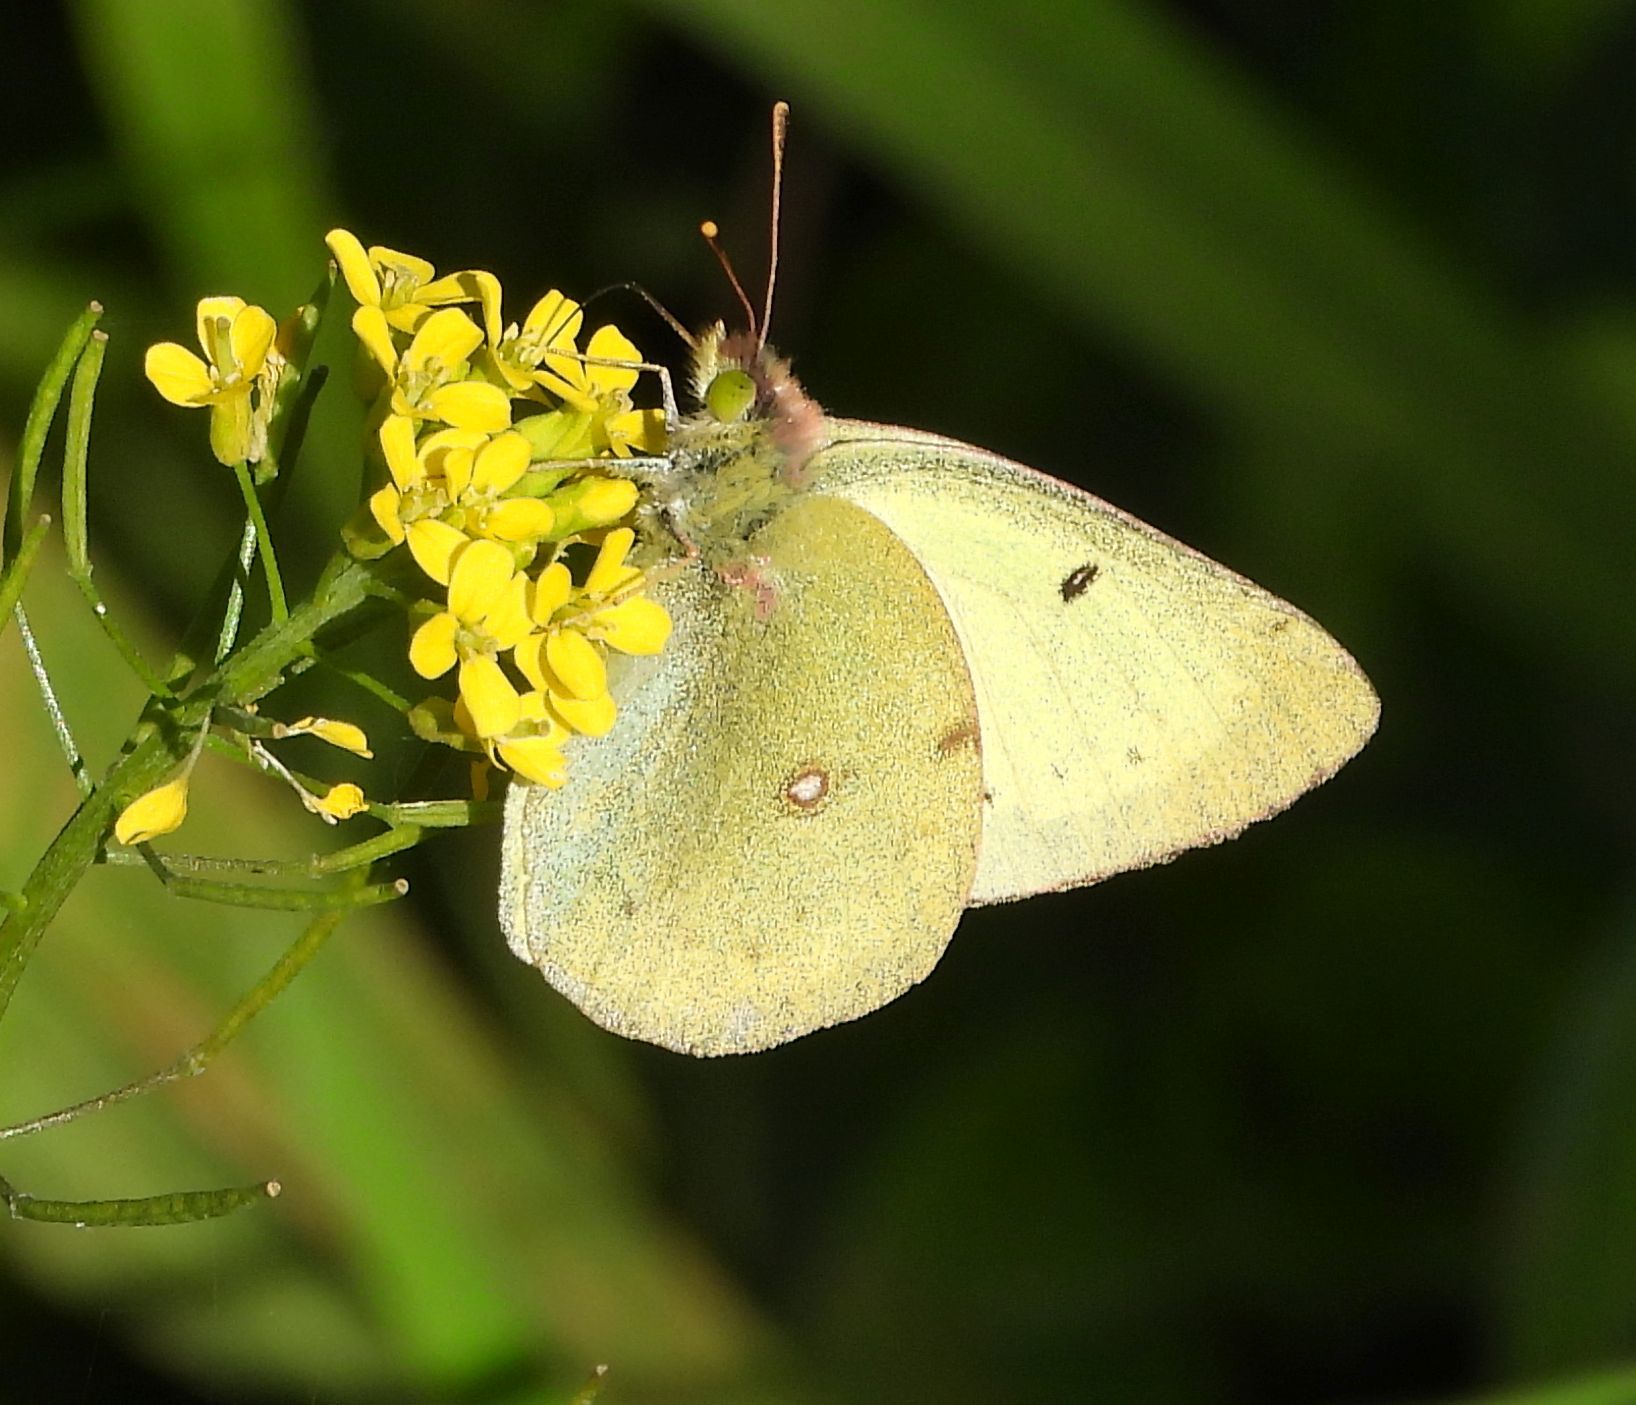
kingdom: Animalia
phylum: Arthropoda
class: Insecta
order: Lepidoptera
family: Pieridae
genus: Colias
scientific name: Colias philodice
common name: Clouded sulphur
